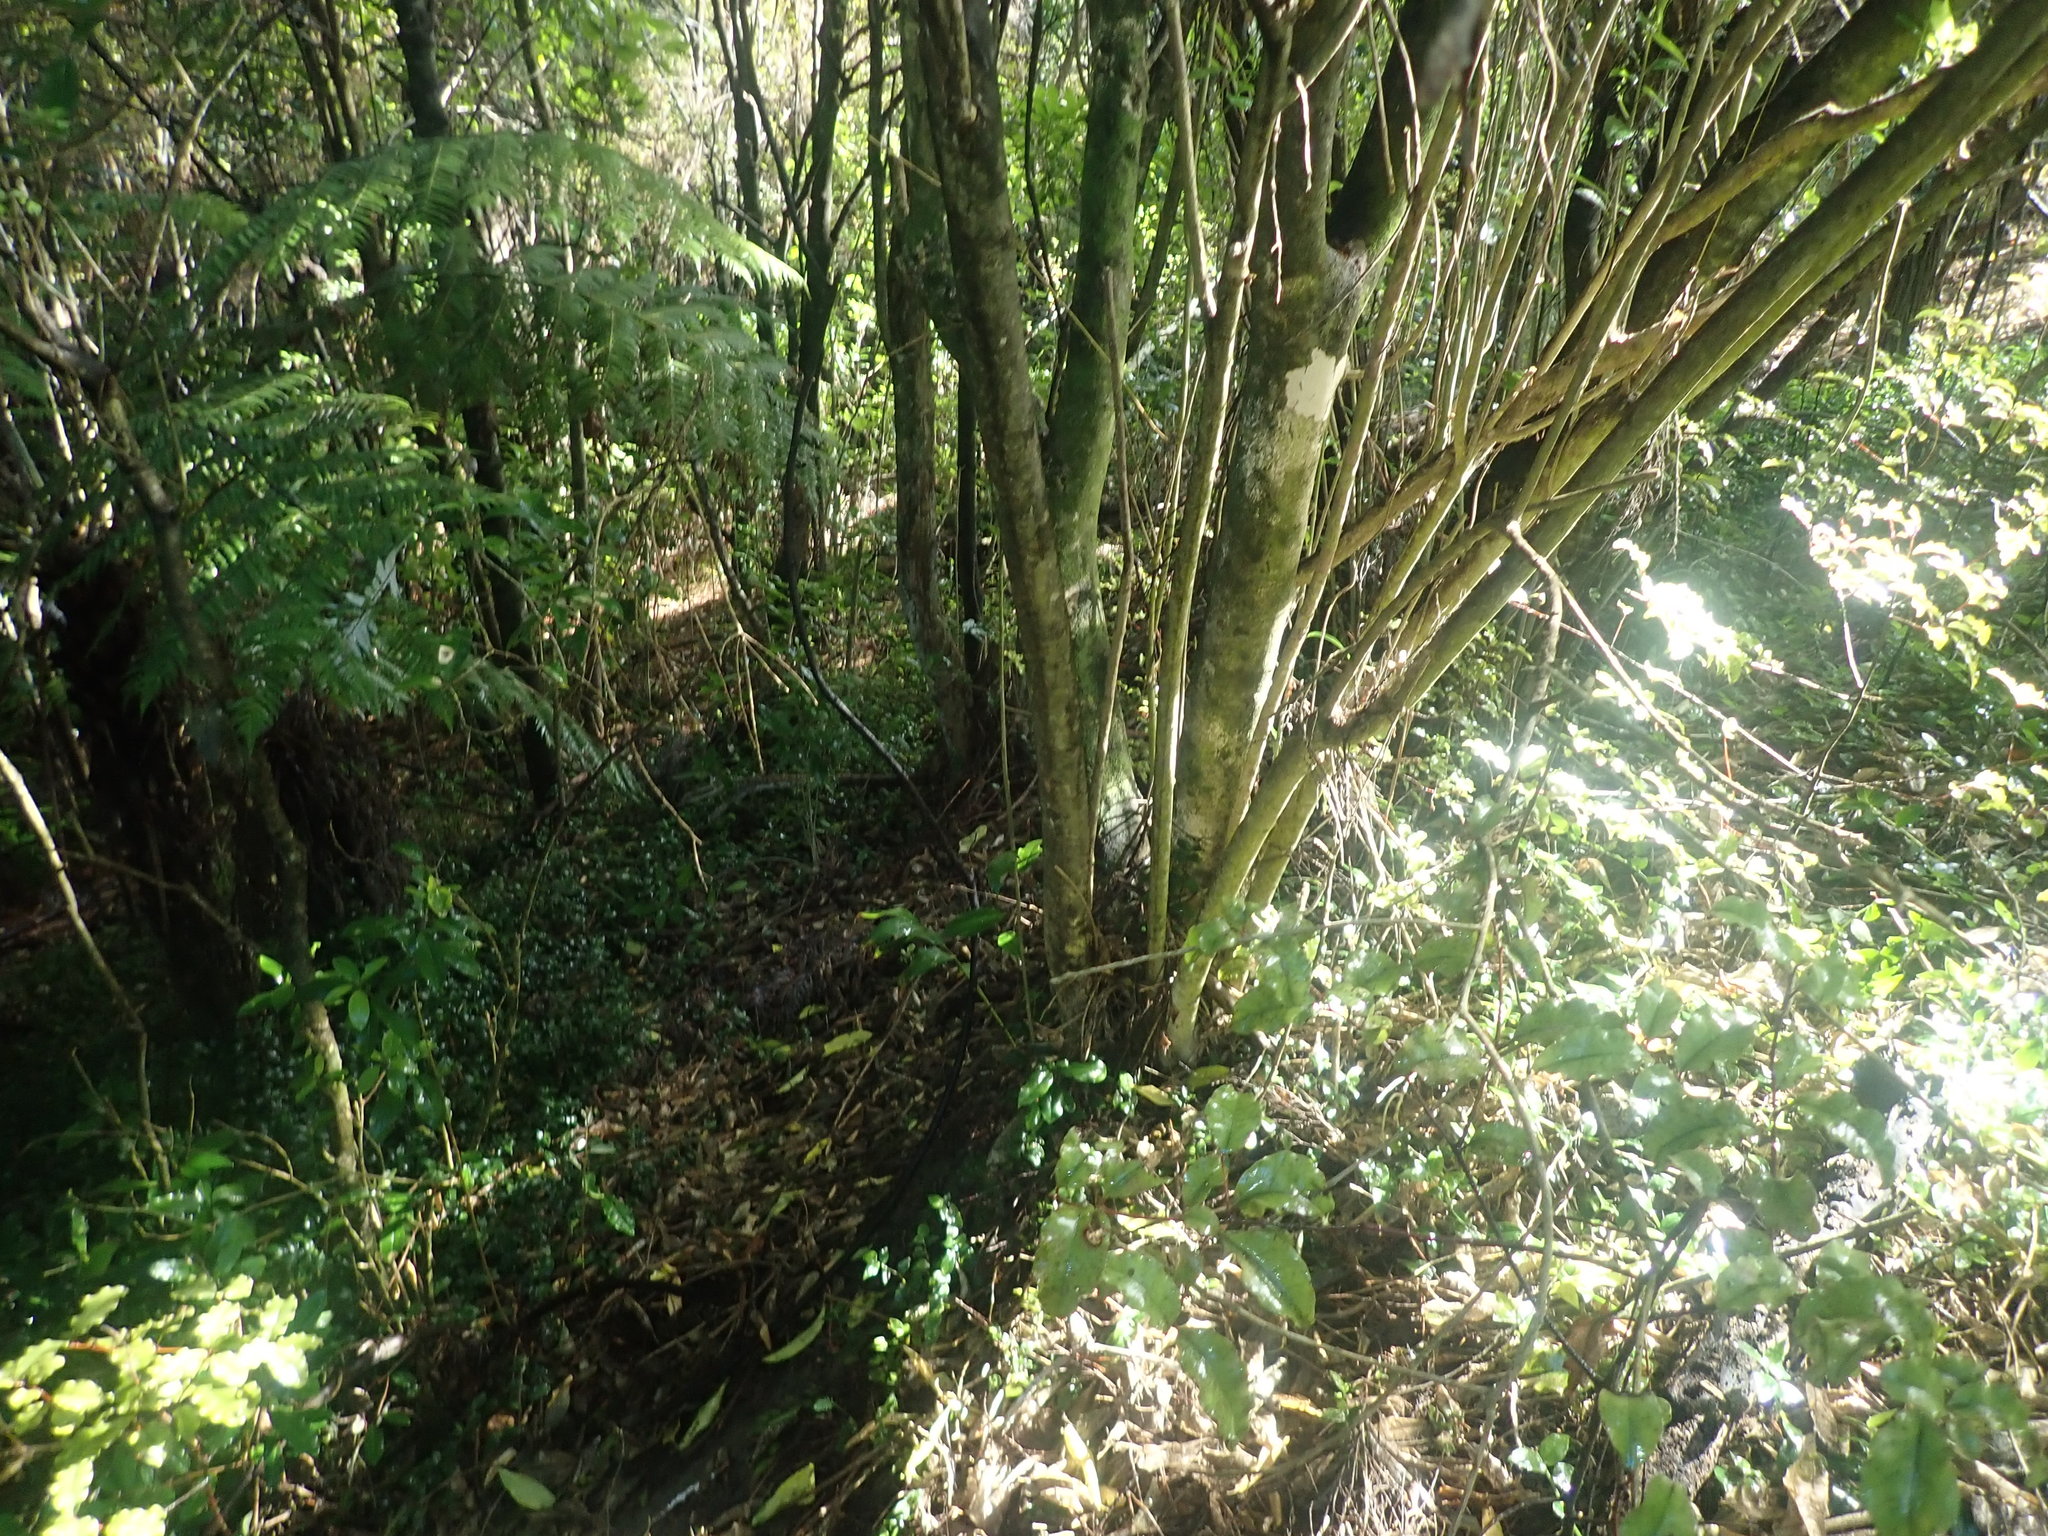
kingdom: Plantae
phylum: Tracheophyta
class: Magnoliopsida
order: Malpighiales
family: Violaceae
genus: Melicytus
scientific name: Melicytus ramiflorus
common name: Mahoe
